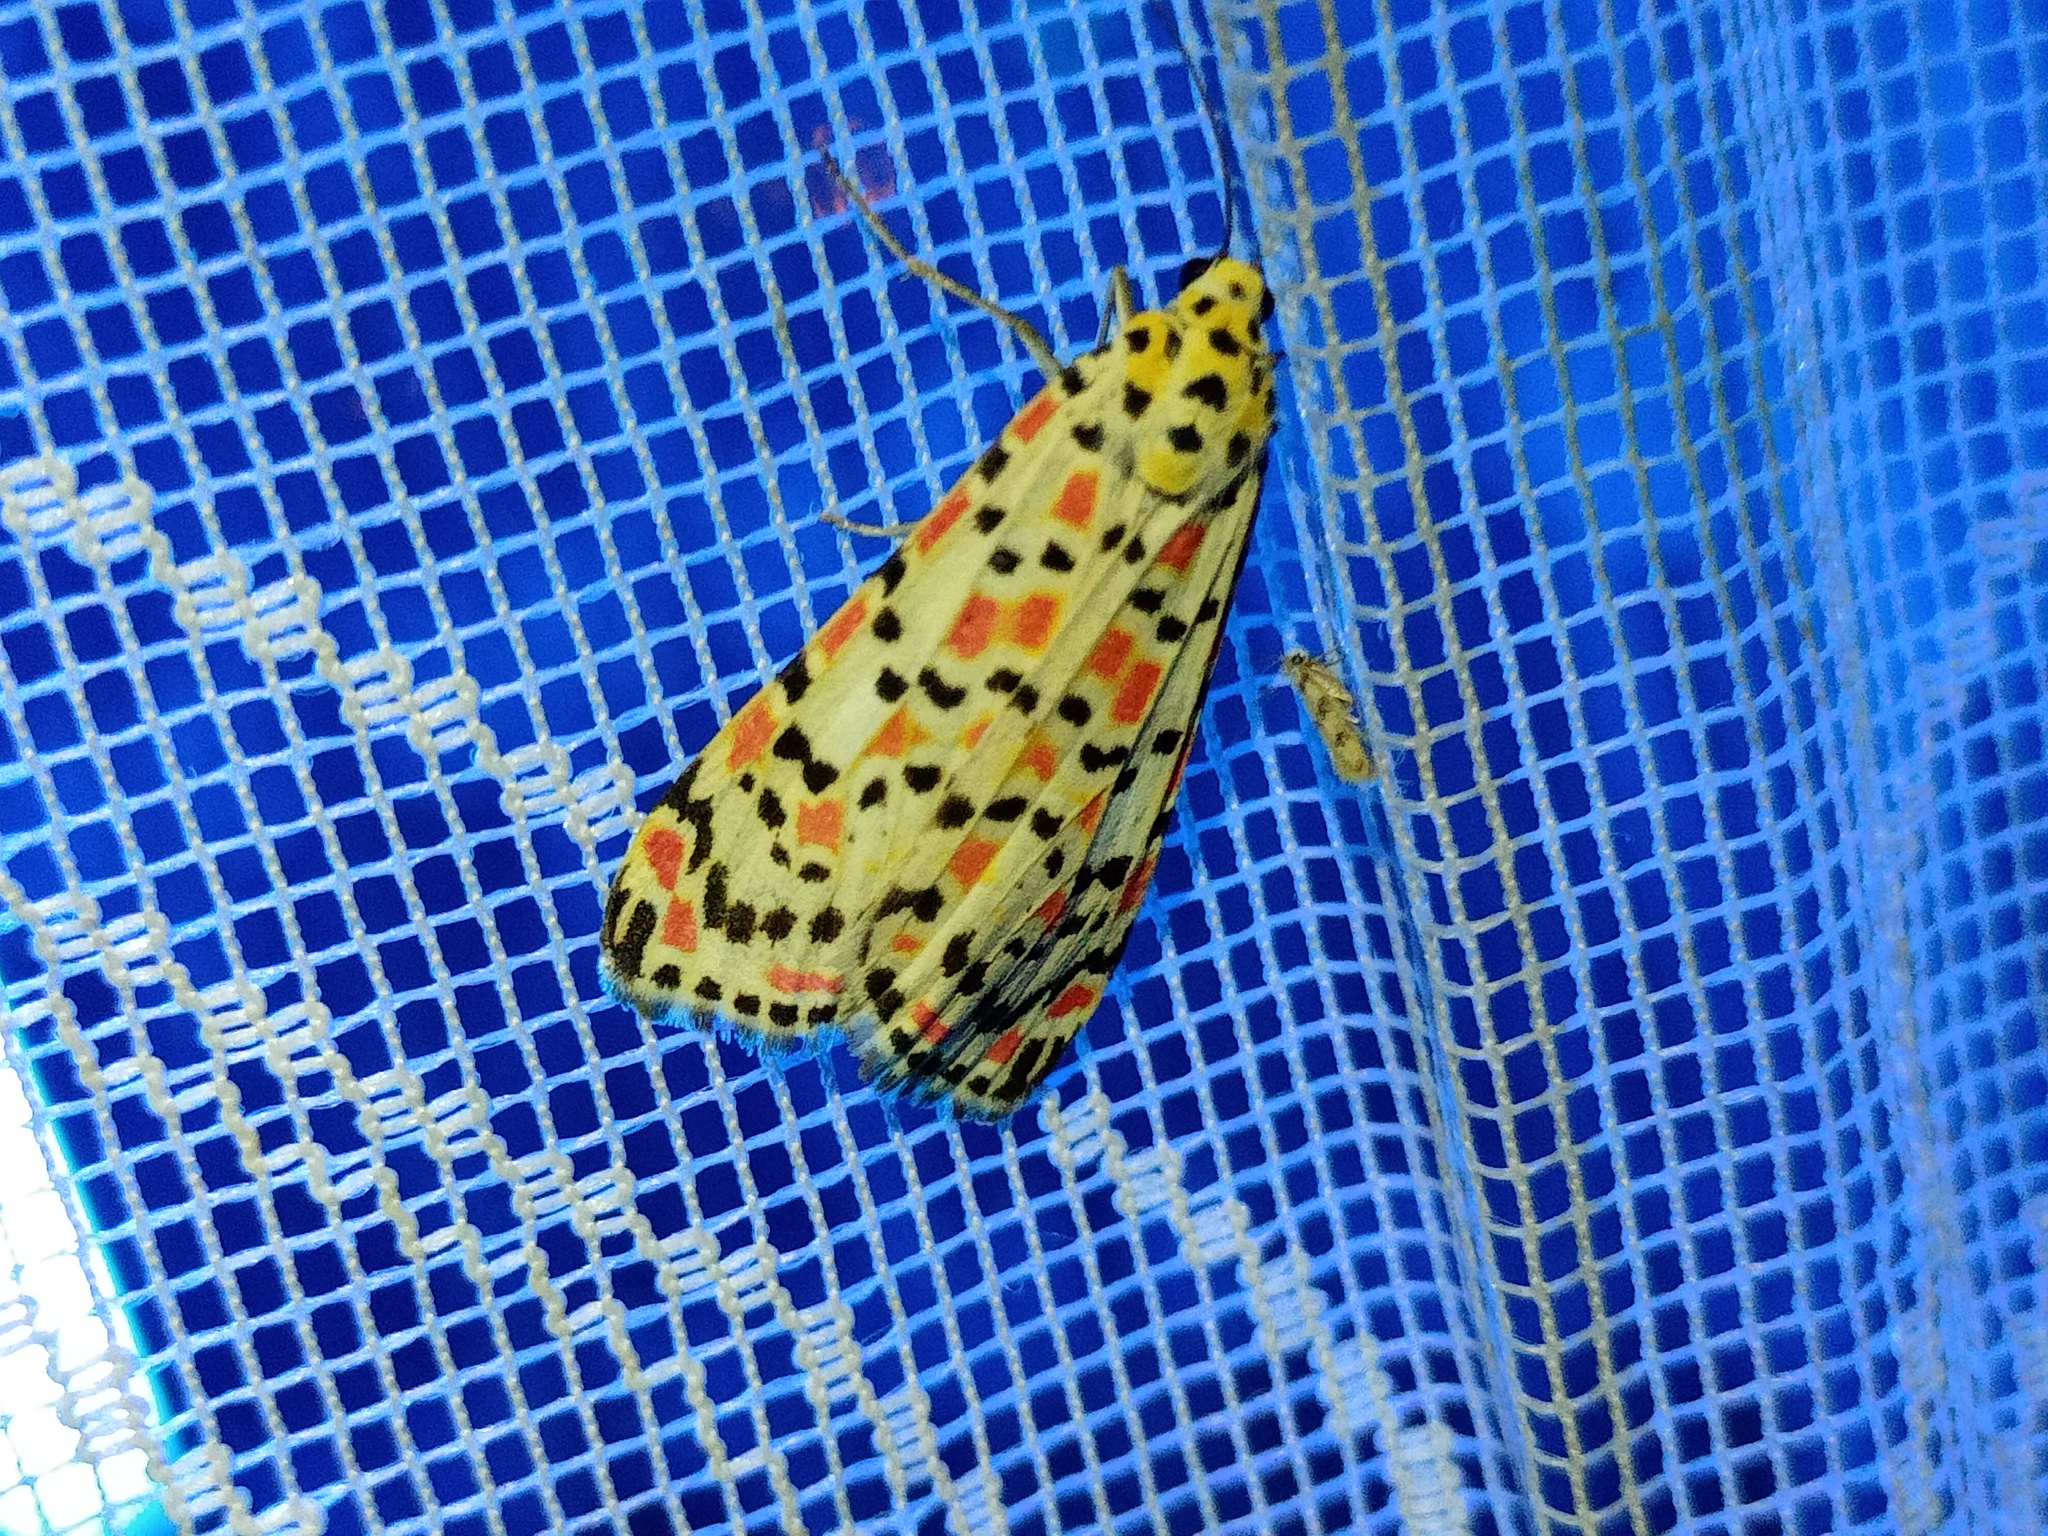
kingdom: Animalia
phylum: Arthropoda
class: Insecta
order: Lepidoptera
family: Erebidae
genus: Utetheisa
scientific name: Utetheisa pulchella
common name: Crimson speckled
